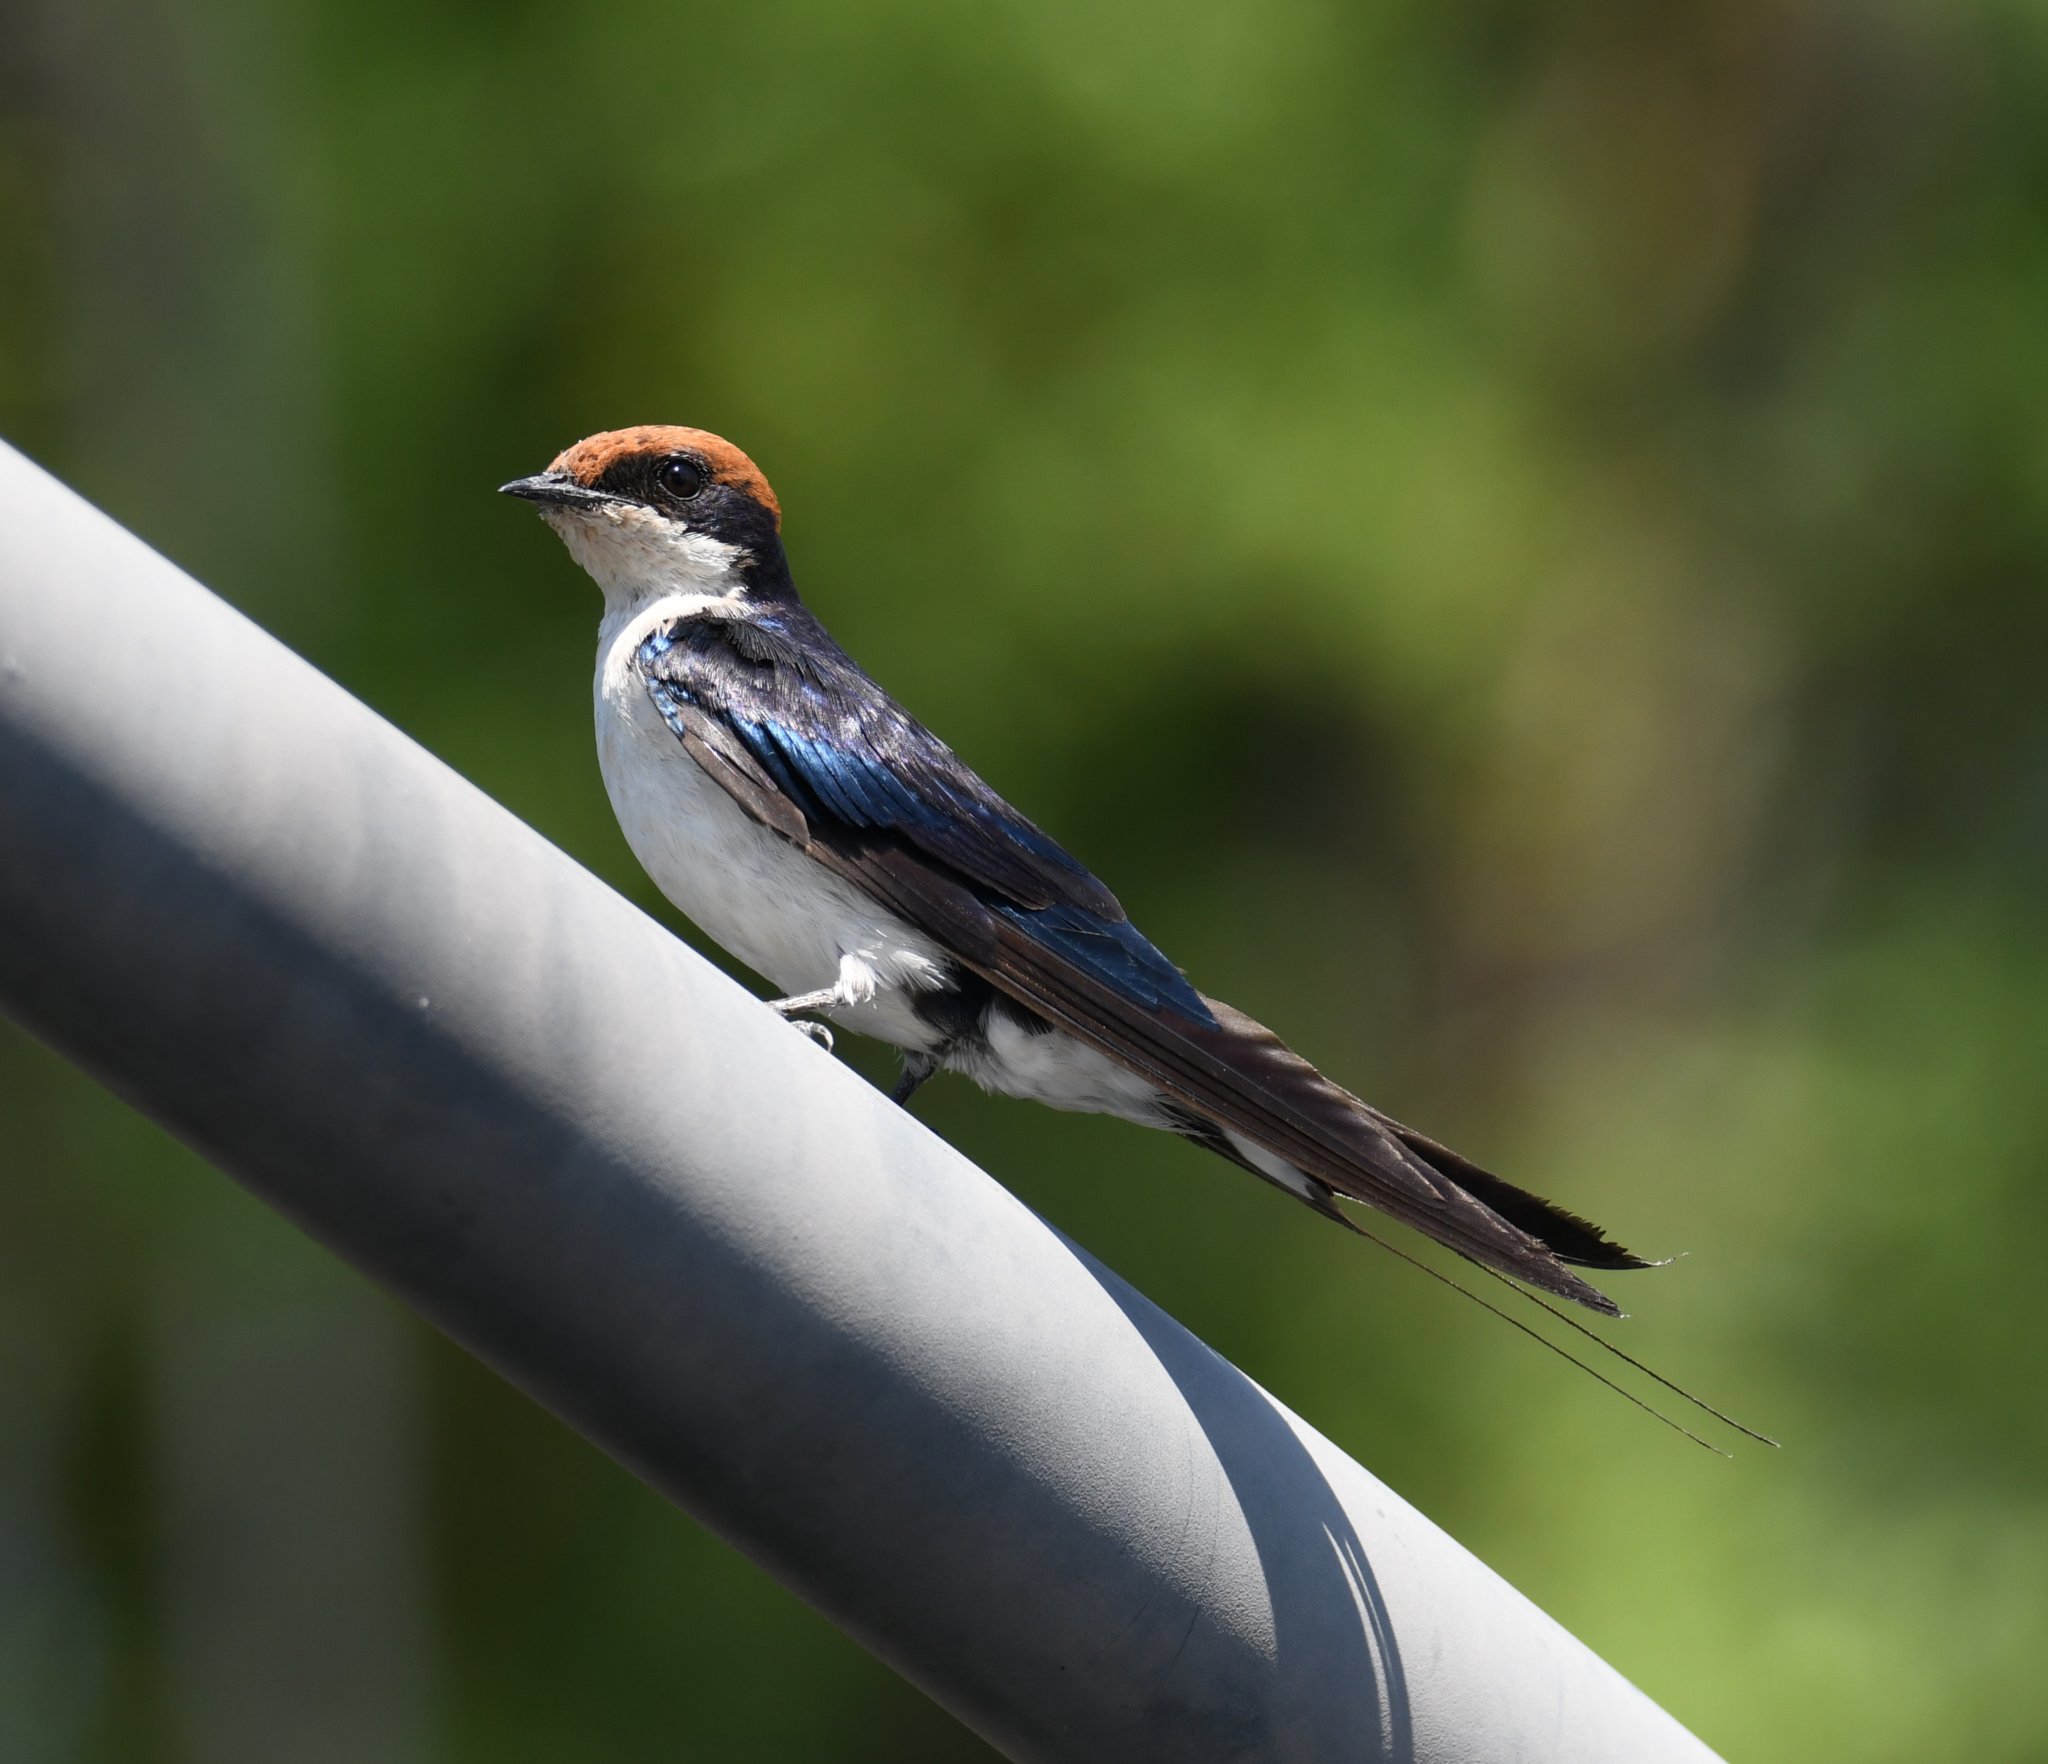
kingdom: Animalia
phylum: Chordata
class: Aves
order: Passeriformes
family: Hirundinidae
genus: Hirundo
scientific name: Hirundo smithii
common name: Wire-tailed swallow
